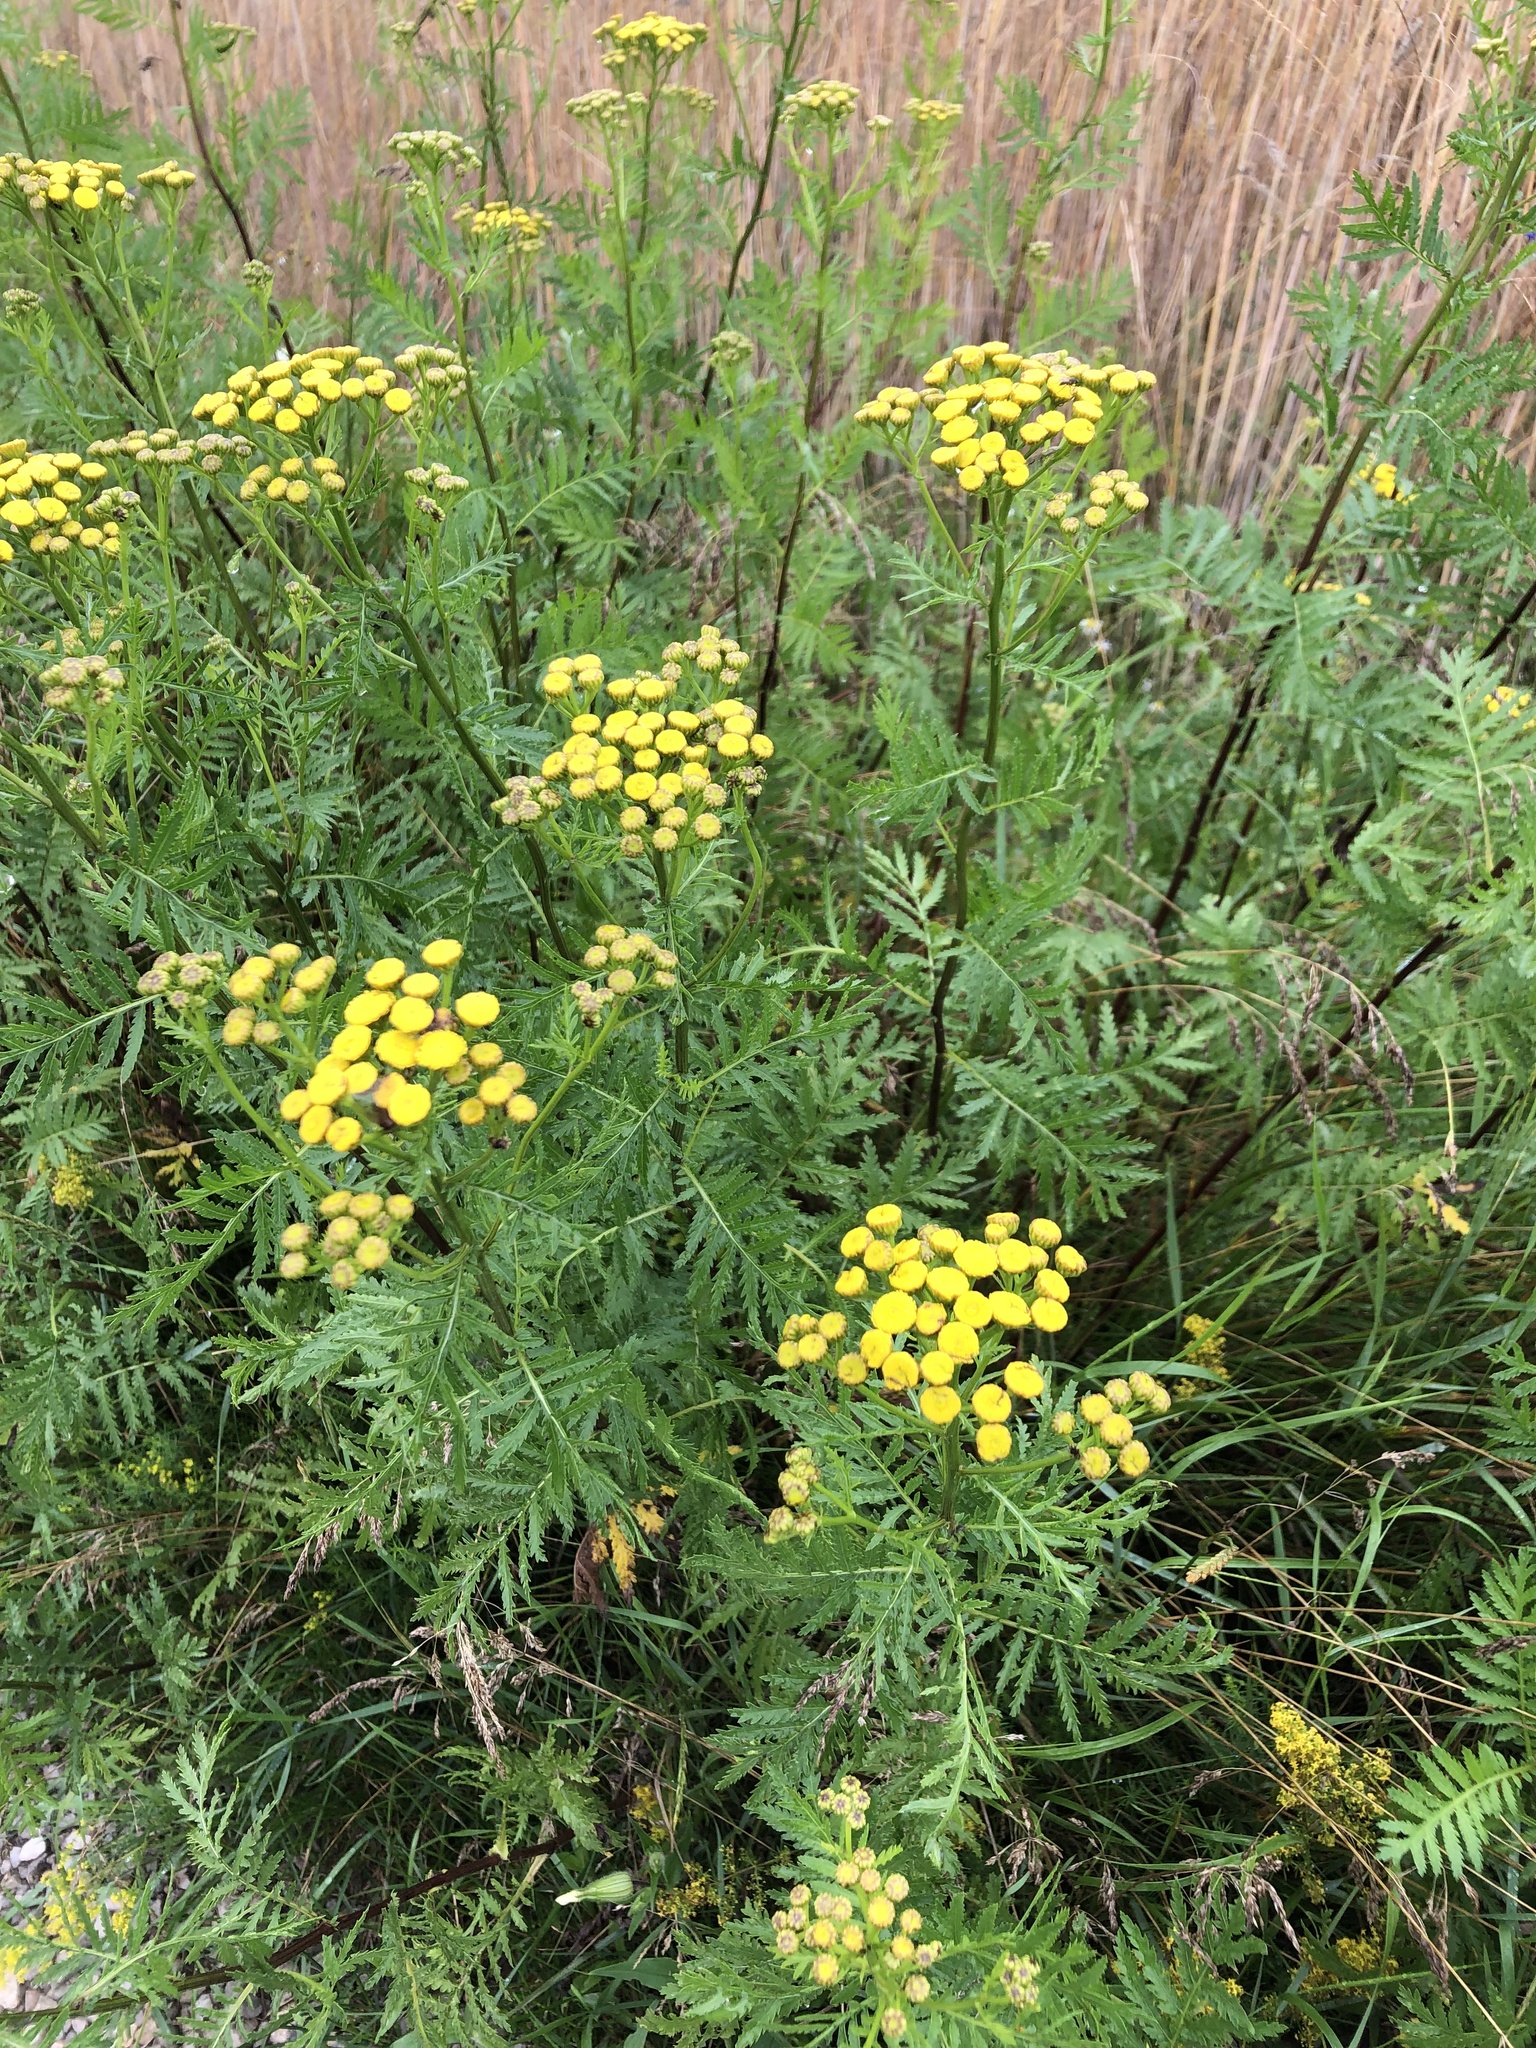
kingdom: Plantae
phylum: Tracheophyta
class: Magnoliopsida
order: Asterales
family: Asteraceae
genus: Tanacetum
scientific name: Tanacetum vulgare
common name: Common tansy
